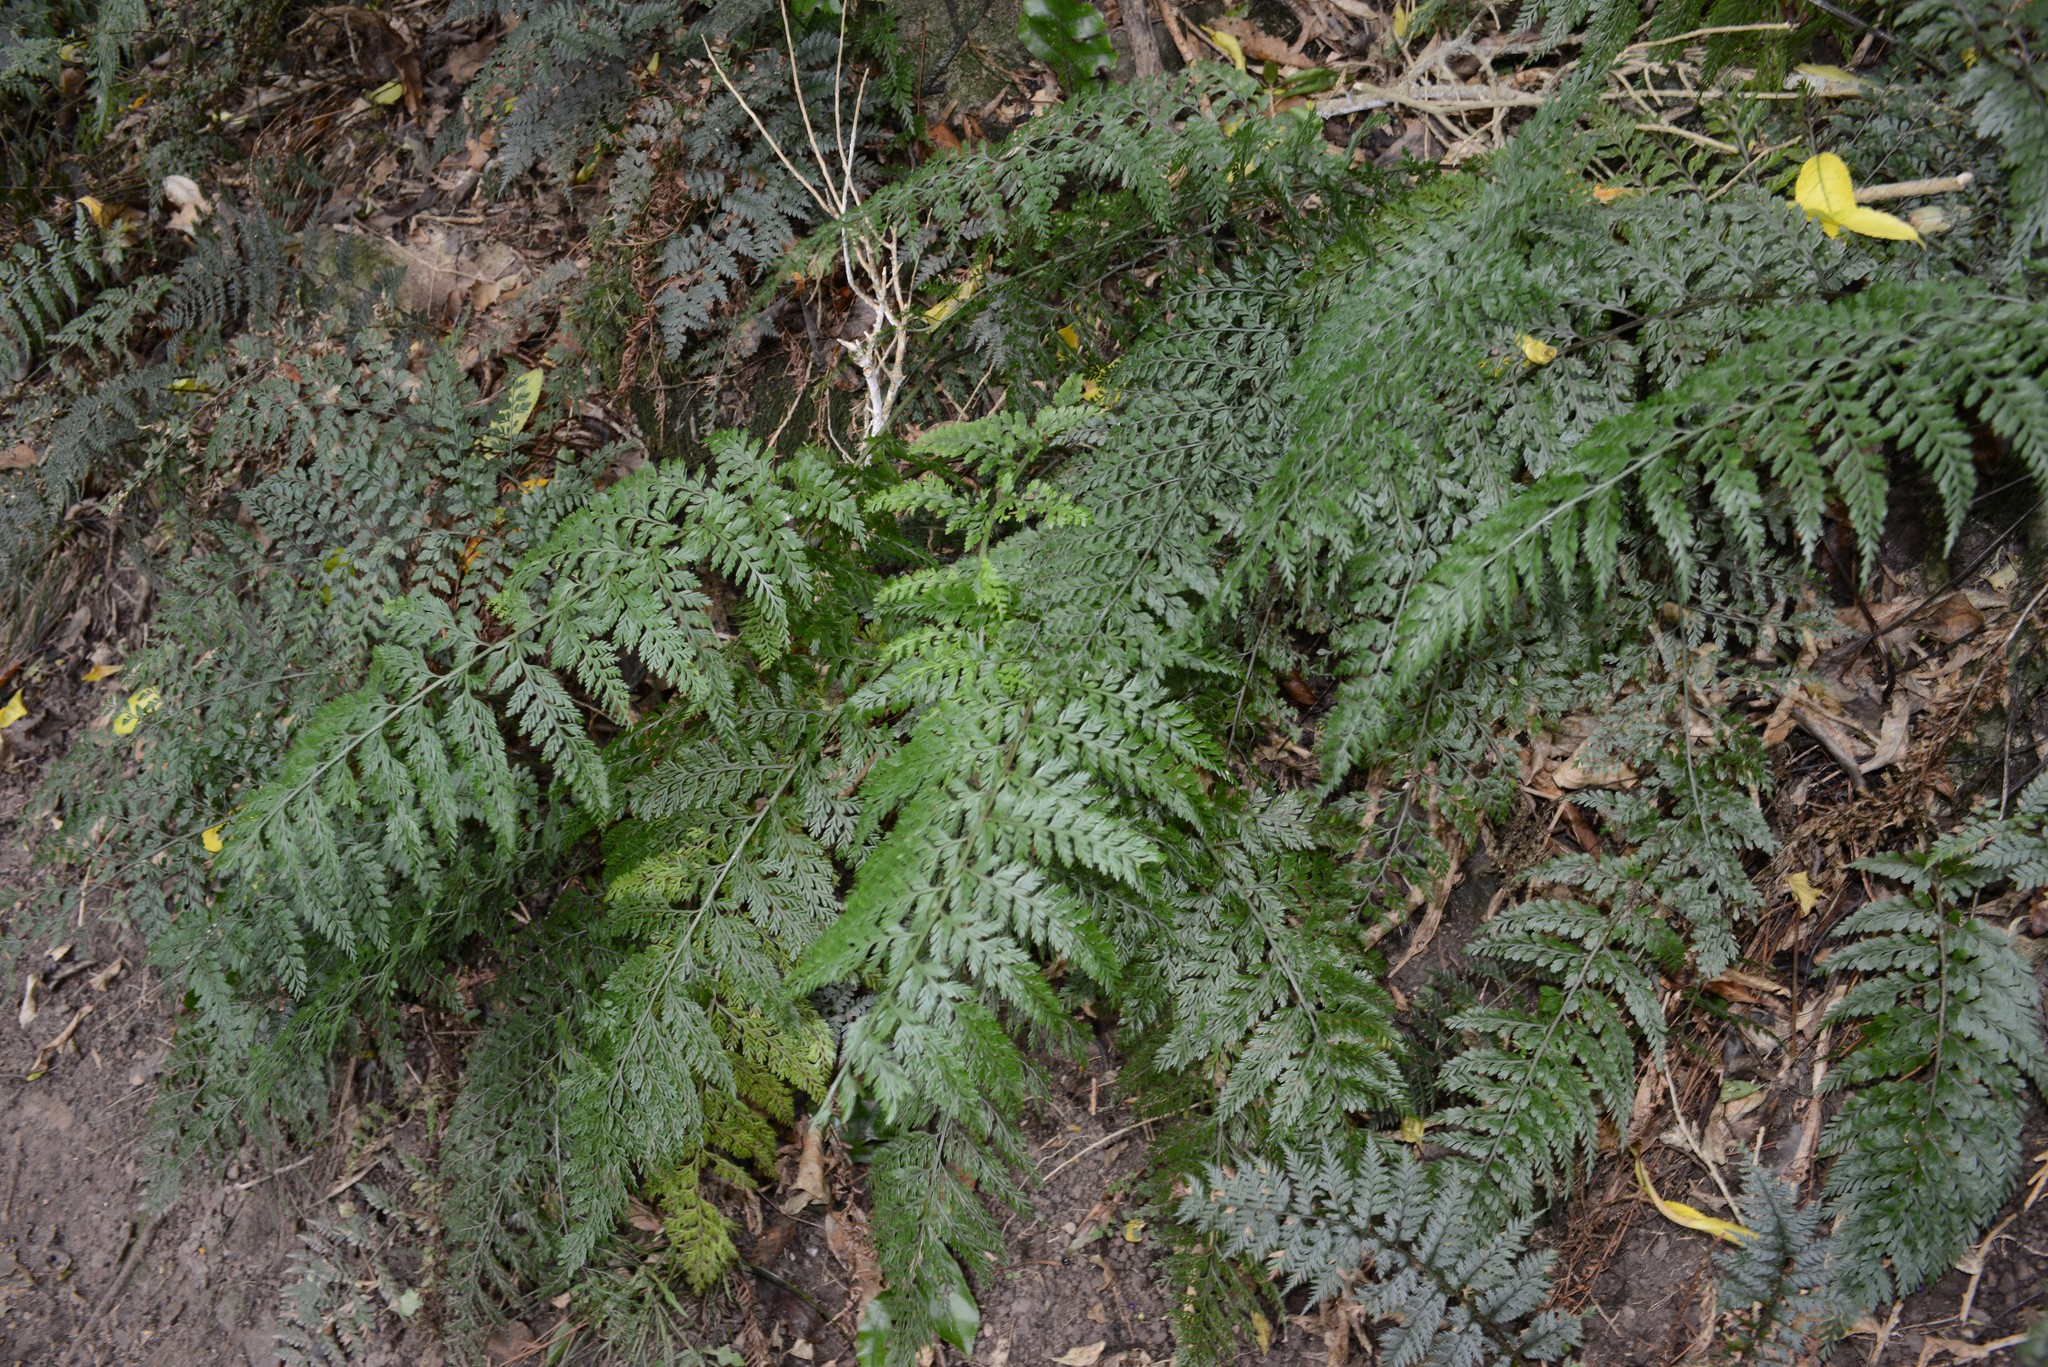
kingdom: Plantae
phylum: Tracheophyta
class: Polypodiopsida
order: Polypodiales
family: Aspleniaceae
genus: Asplenium
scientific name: Asplenium
